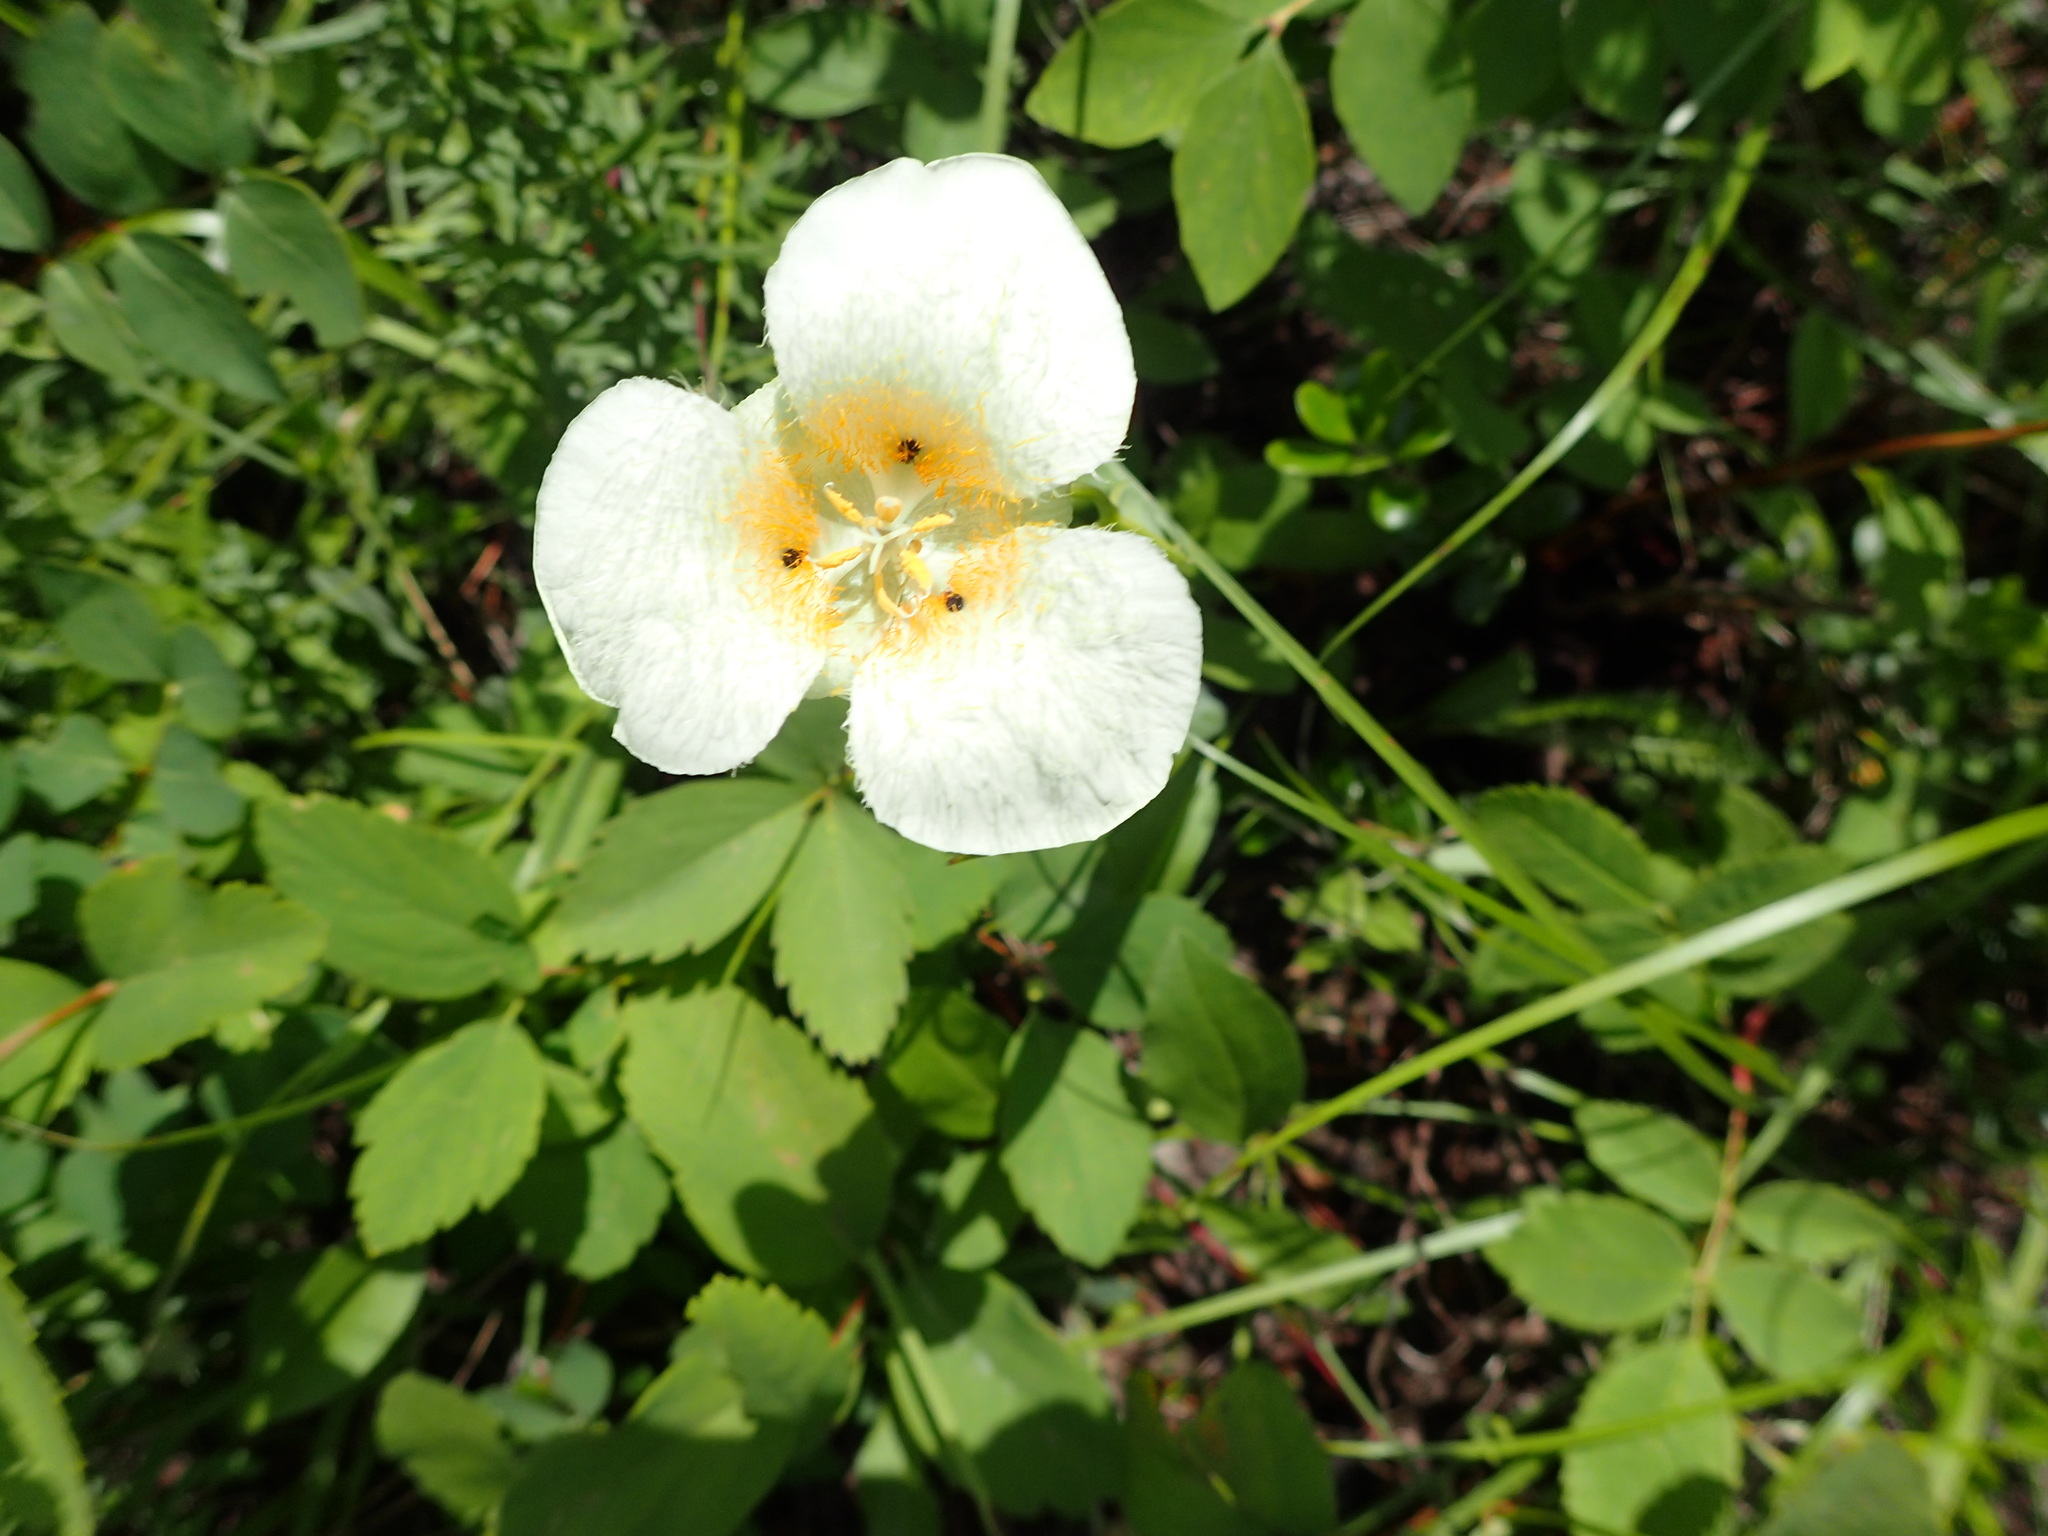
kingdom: Plantae
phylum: Tracheophyta
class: Liliopsida
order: Liliales
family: Liliaceae
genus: Calochortus
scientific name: Calochortus apiculatus
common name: Baker's mariposa lily
